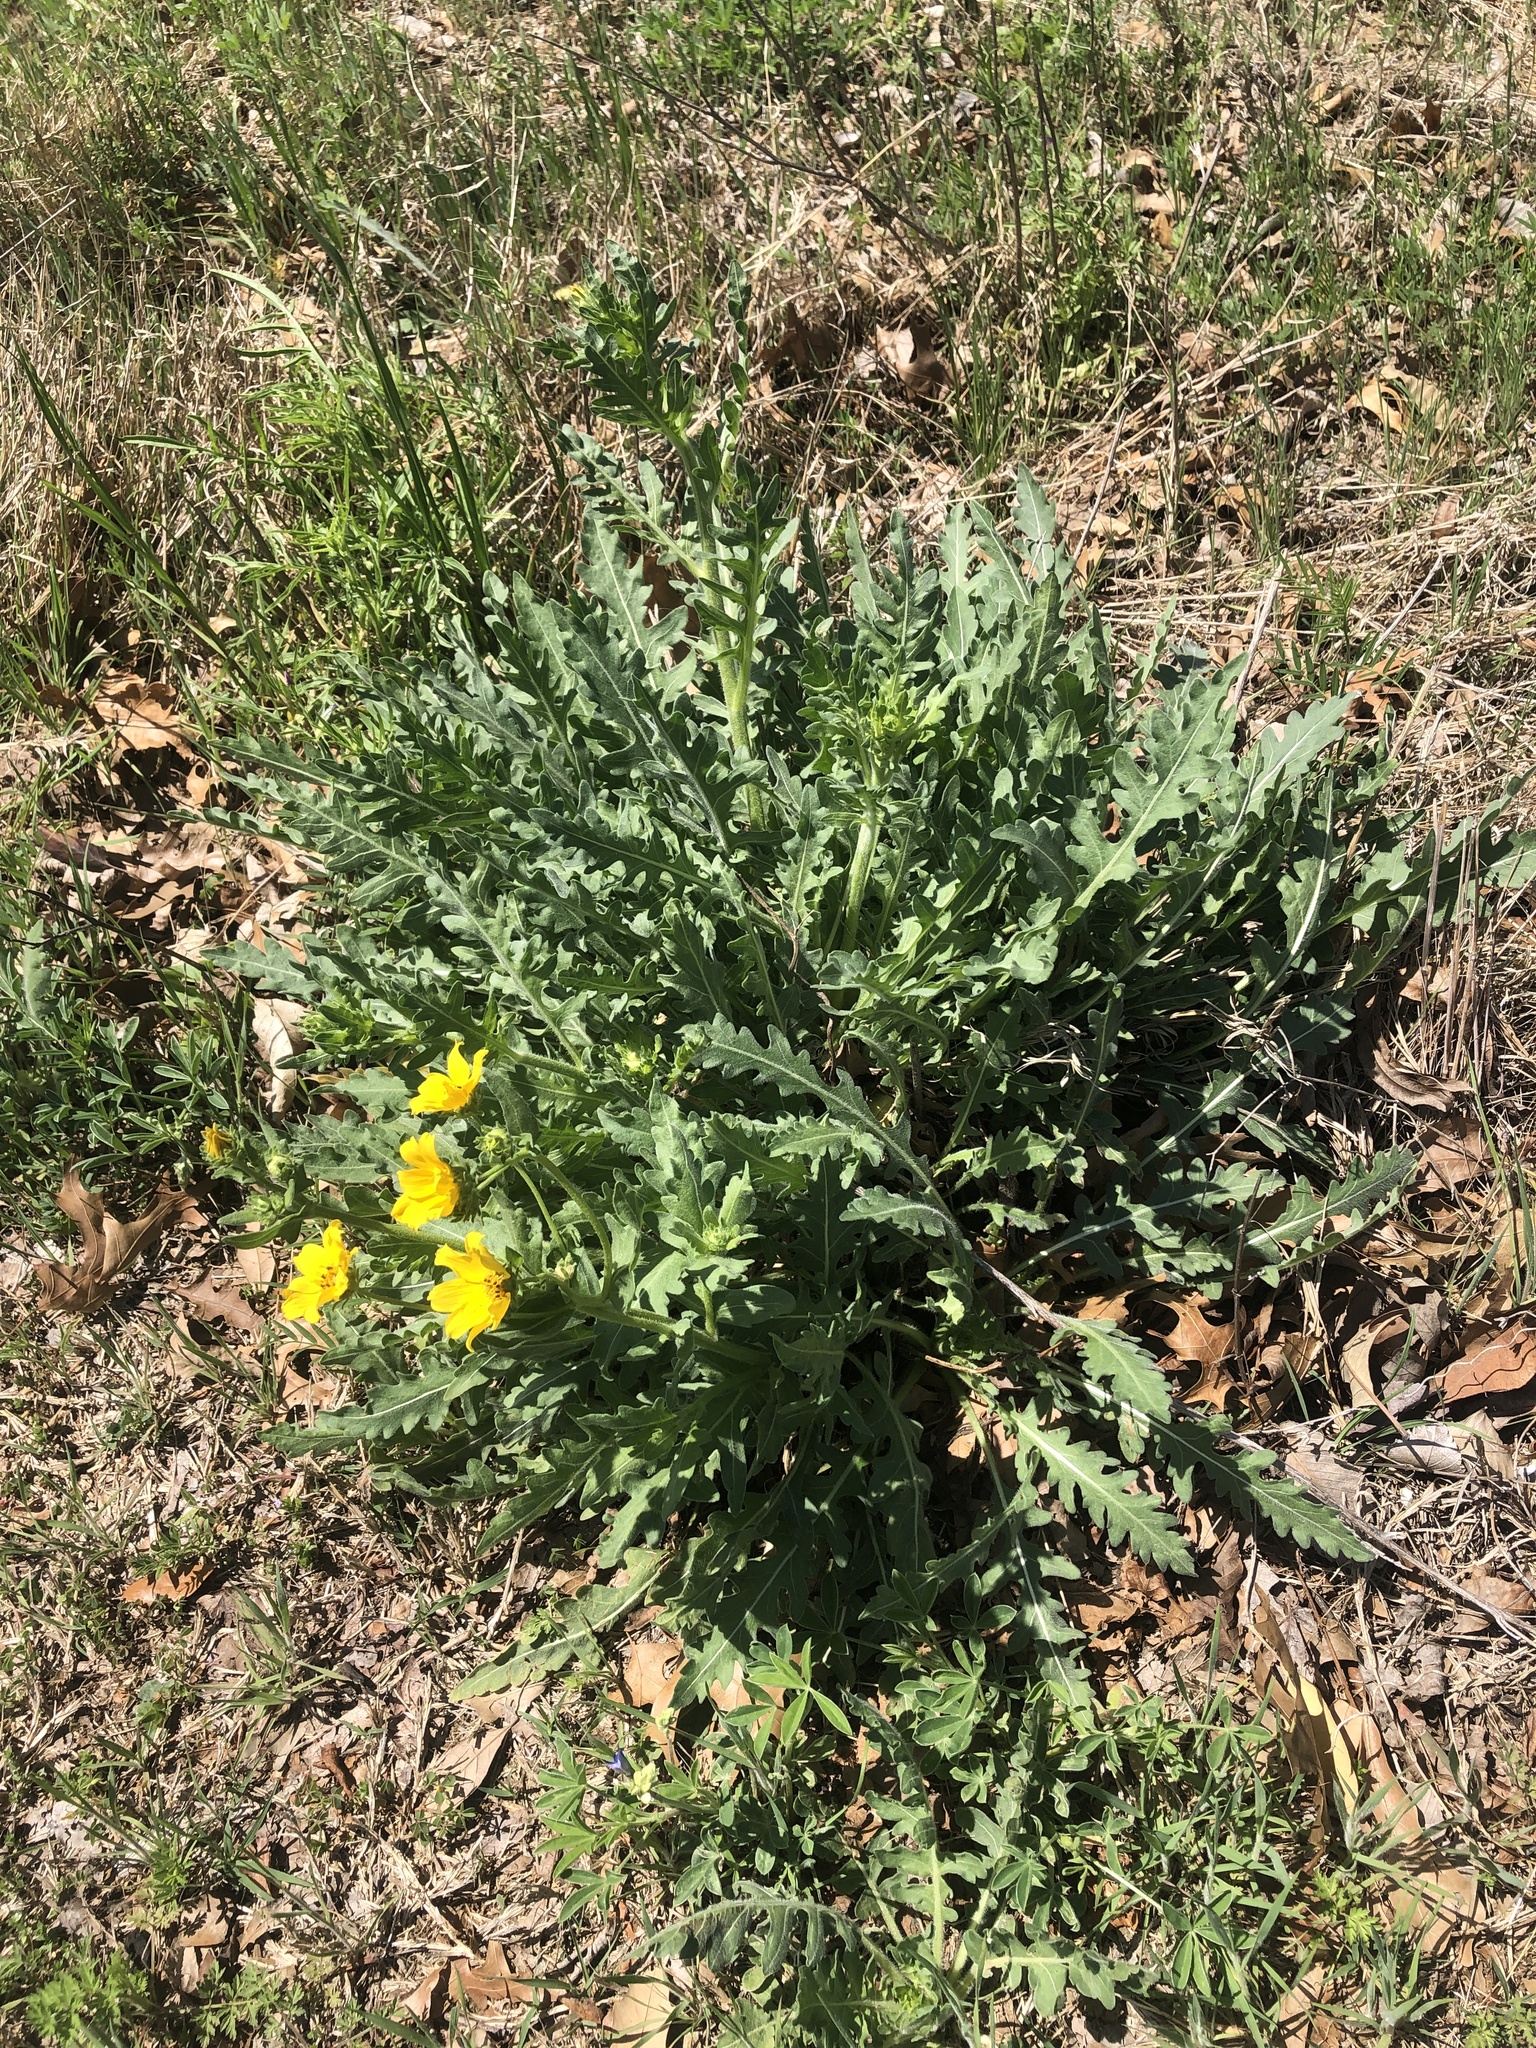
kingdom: Plantae
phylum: Tracheophyta
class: Magnoliopsida
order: Asterales
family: Asteraceae
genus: Engelmannia
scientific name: Engelmannia peristenia
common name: Engelmann's daisy
